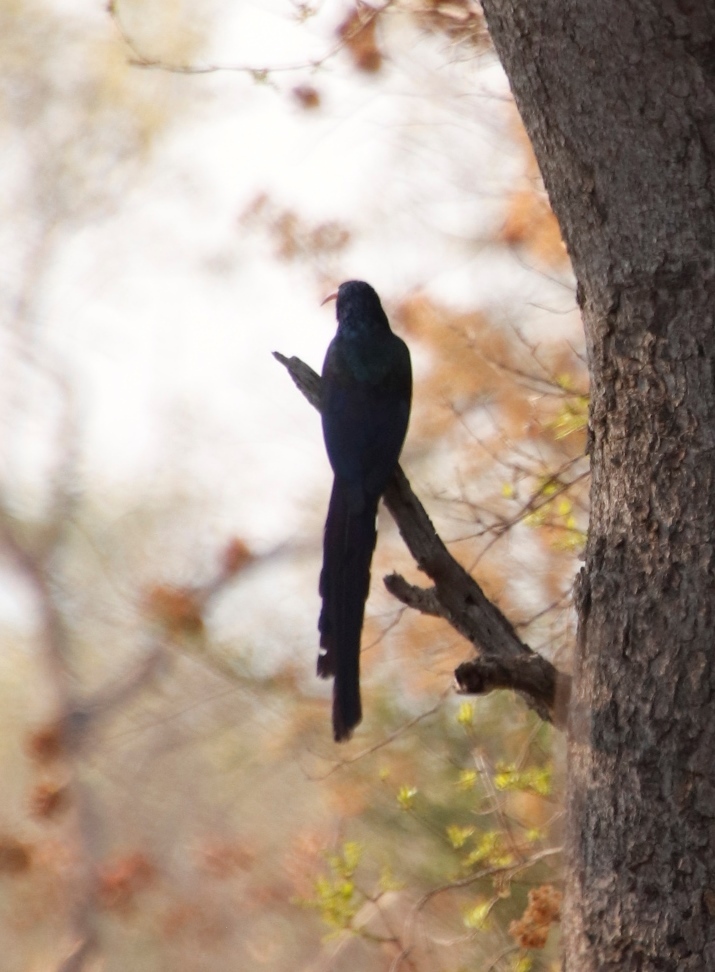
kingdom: Animalia
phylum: Chordata
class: Aves
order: Bucerotiformes
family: Phoeniculidae
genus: Phoeniculus
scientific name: Phoeniculus purpureus
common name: Green woodhoopoe
